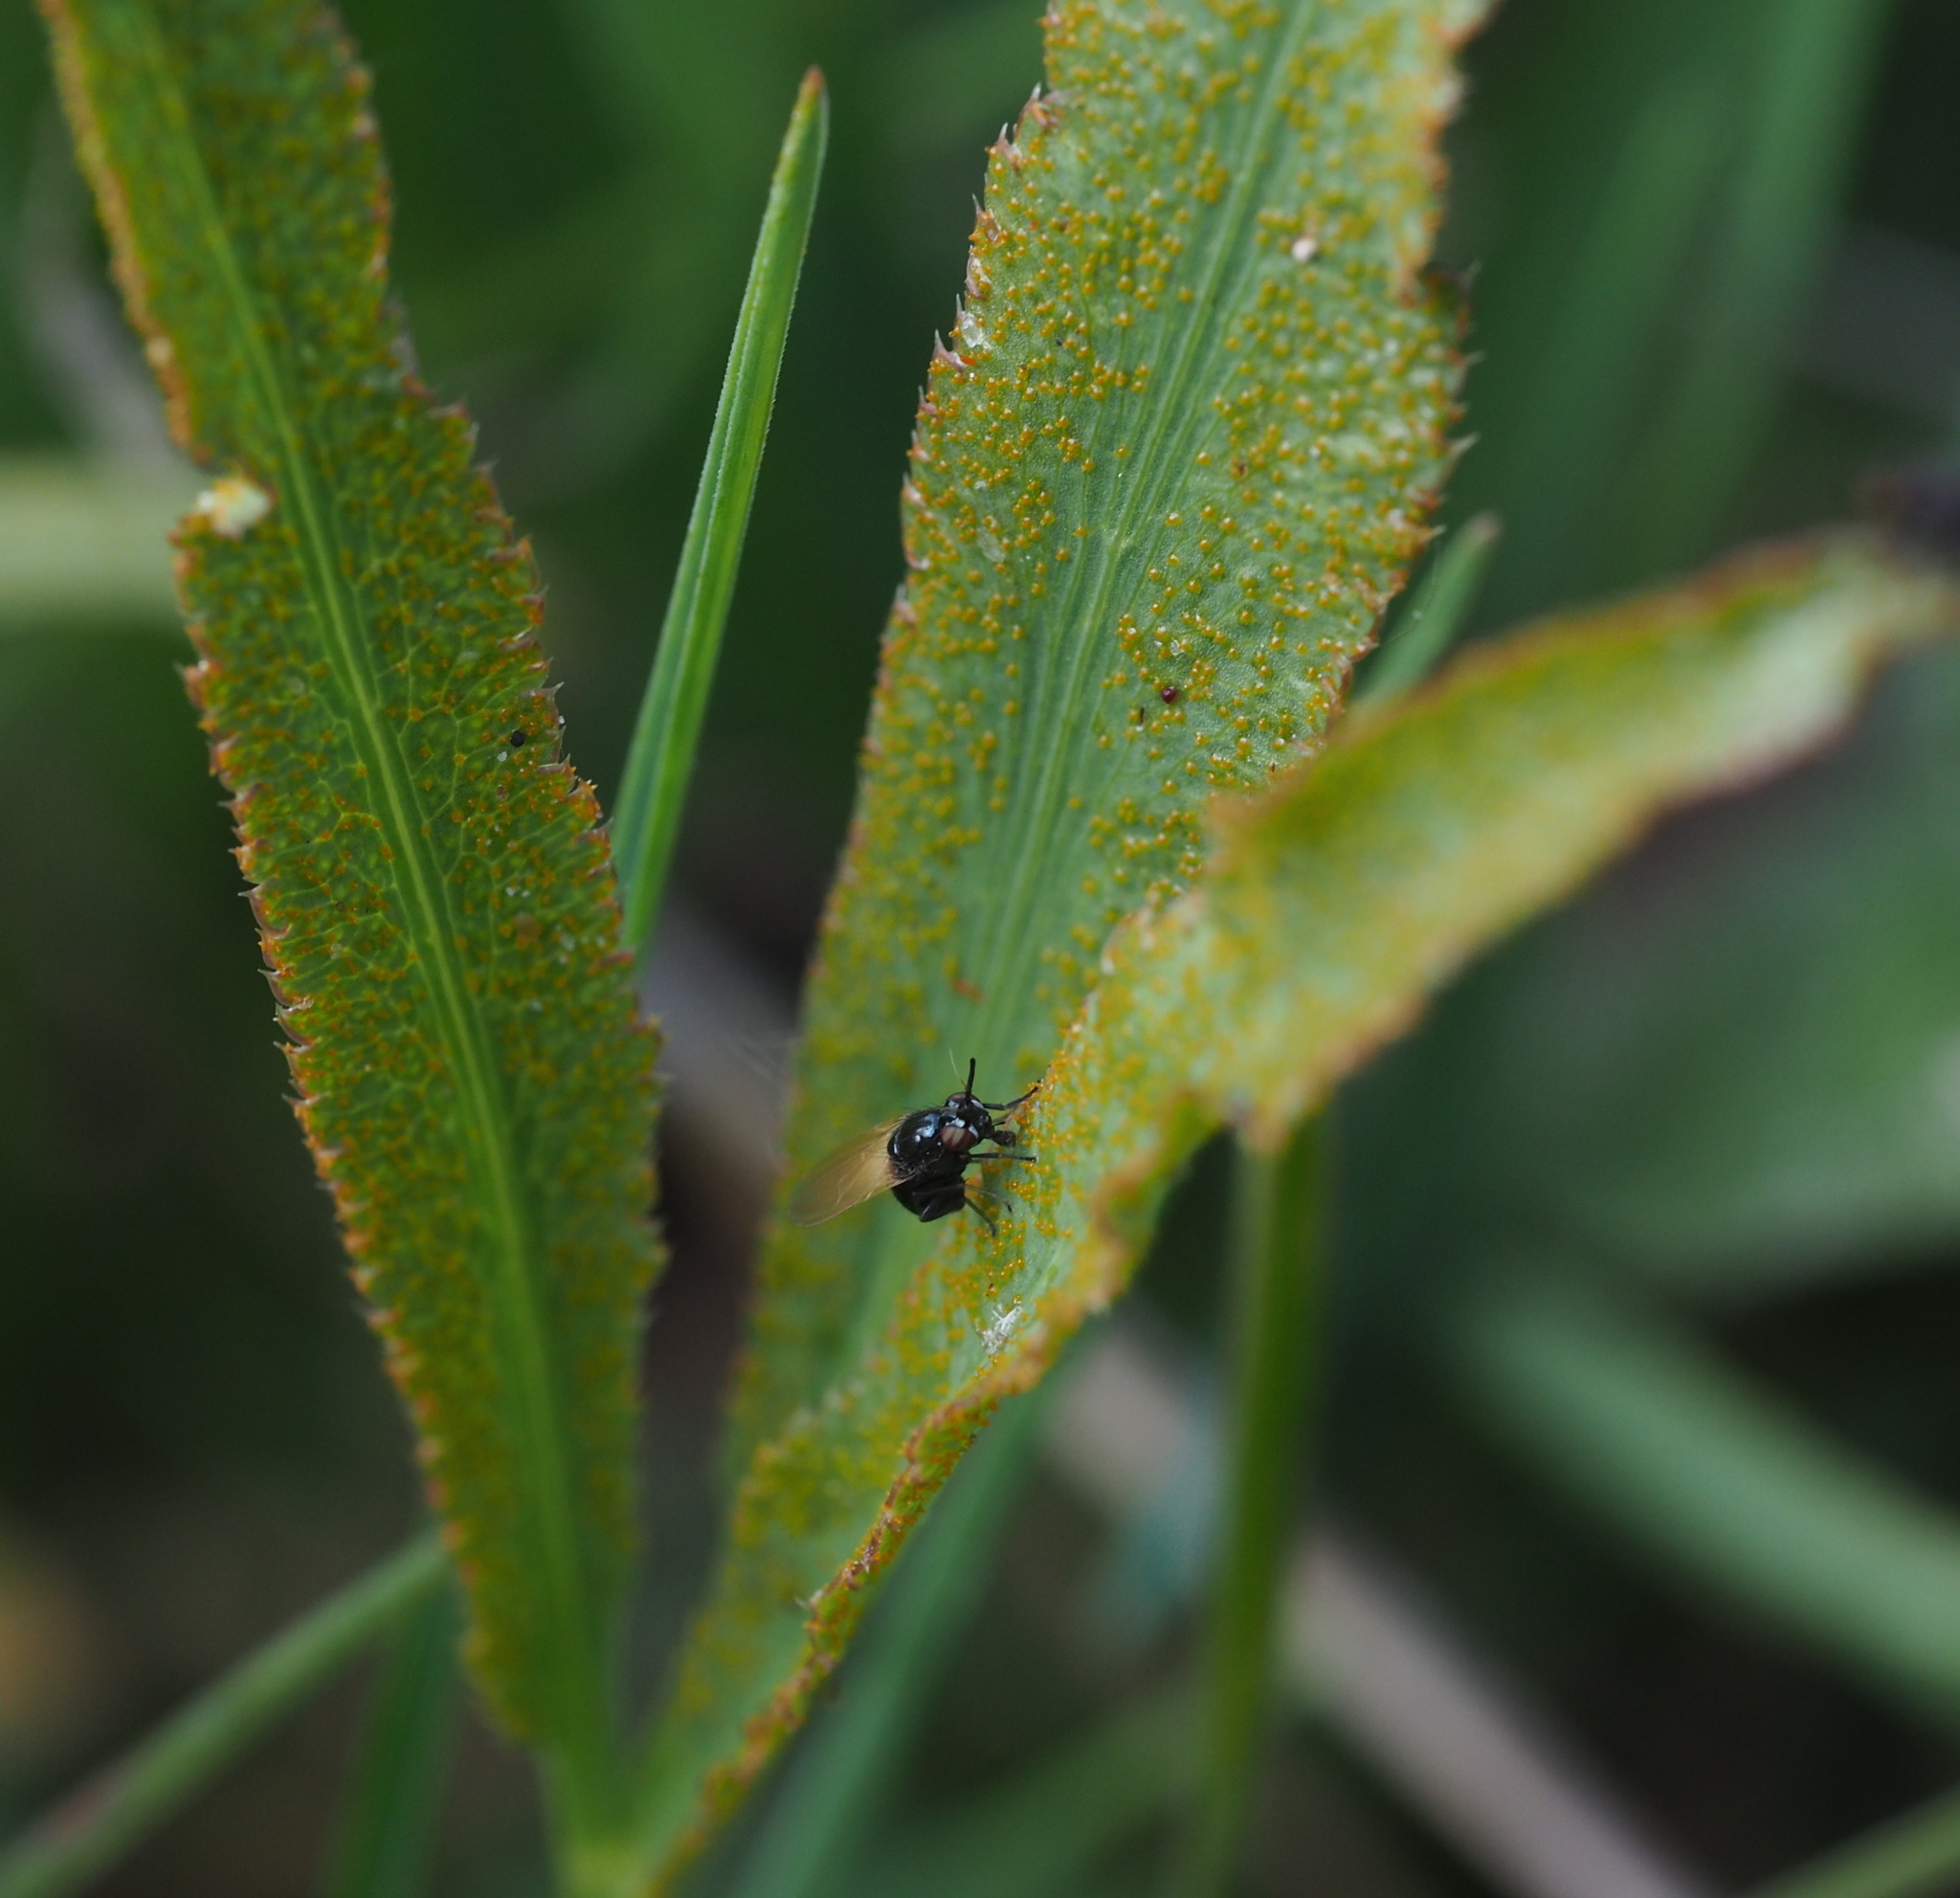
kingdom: Animalia
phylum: Arthropoda
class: Insecta
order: Diptera
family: Lauxaniidae
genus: Lauxania
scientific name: Lauxania minor
